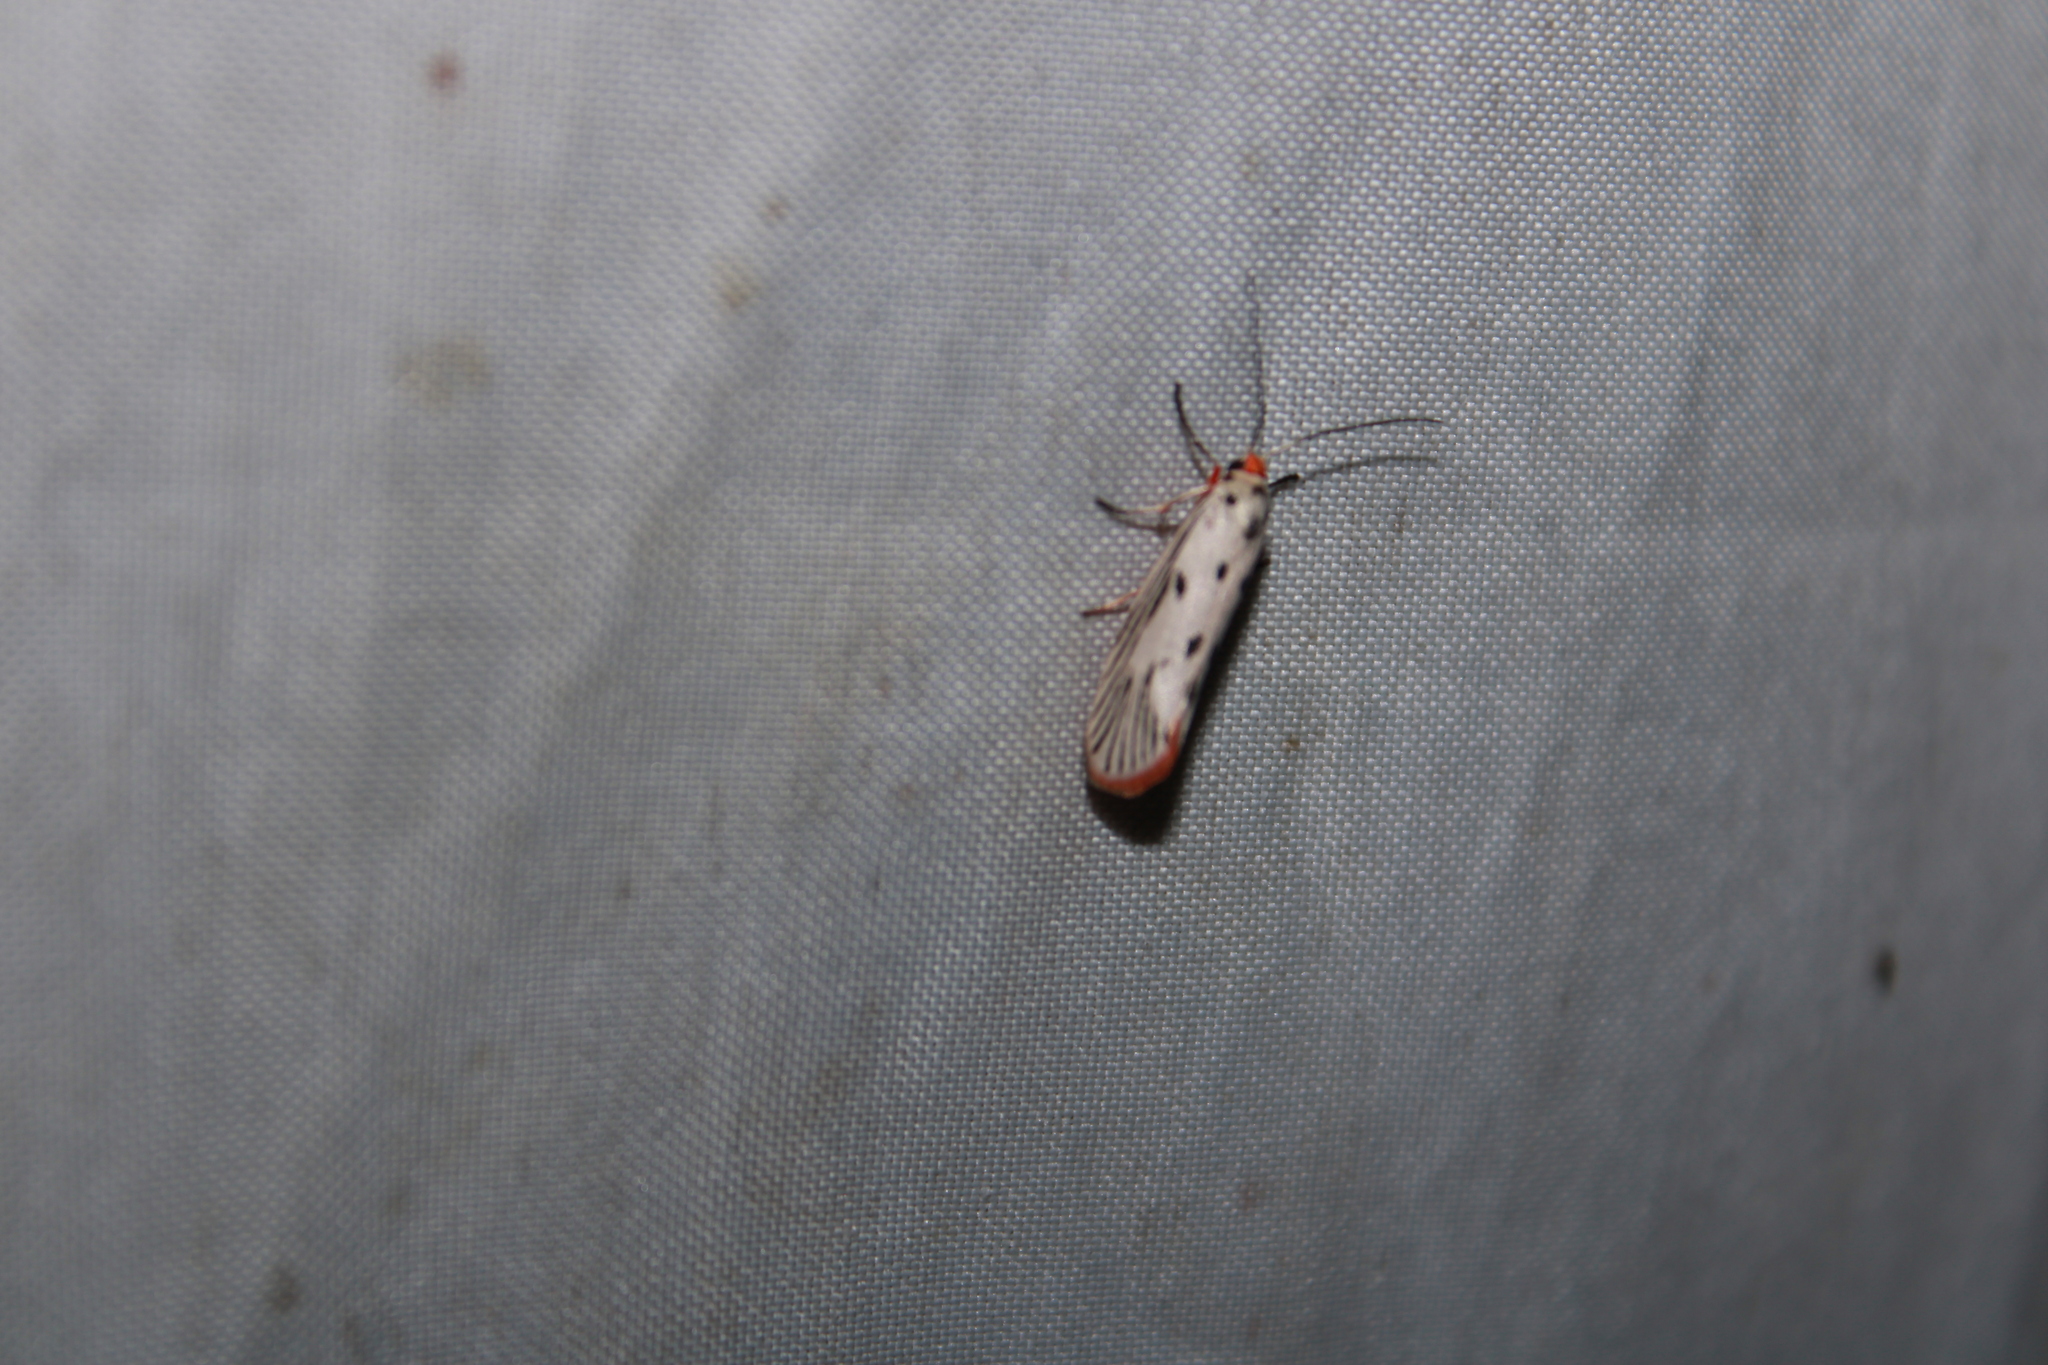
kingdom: Animalia
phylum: Arthropoda
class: Insecta
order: Lepidoptera
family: Lacturidae
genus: Lactura
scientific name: Lactura
